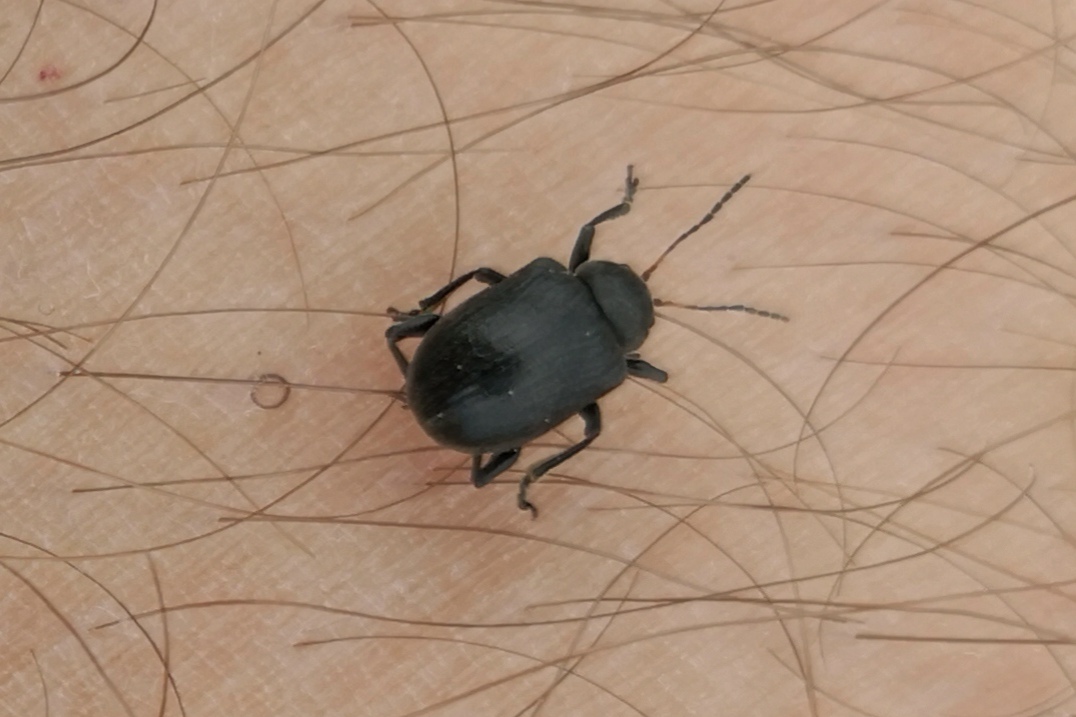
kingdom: Animalia
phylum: Arthropoda
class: Insecta
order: Coleoptera
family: Chrysomelidae
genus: Bromius
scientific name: Bromius obscurus
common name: Western grape rootworm
